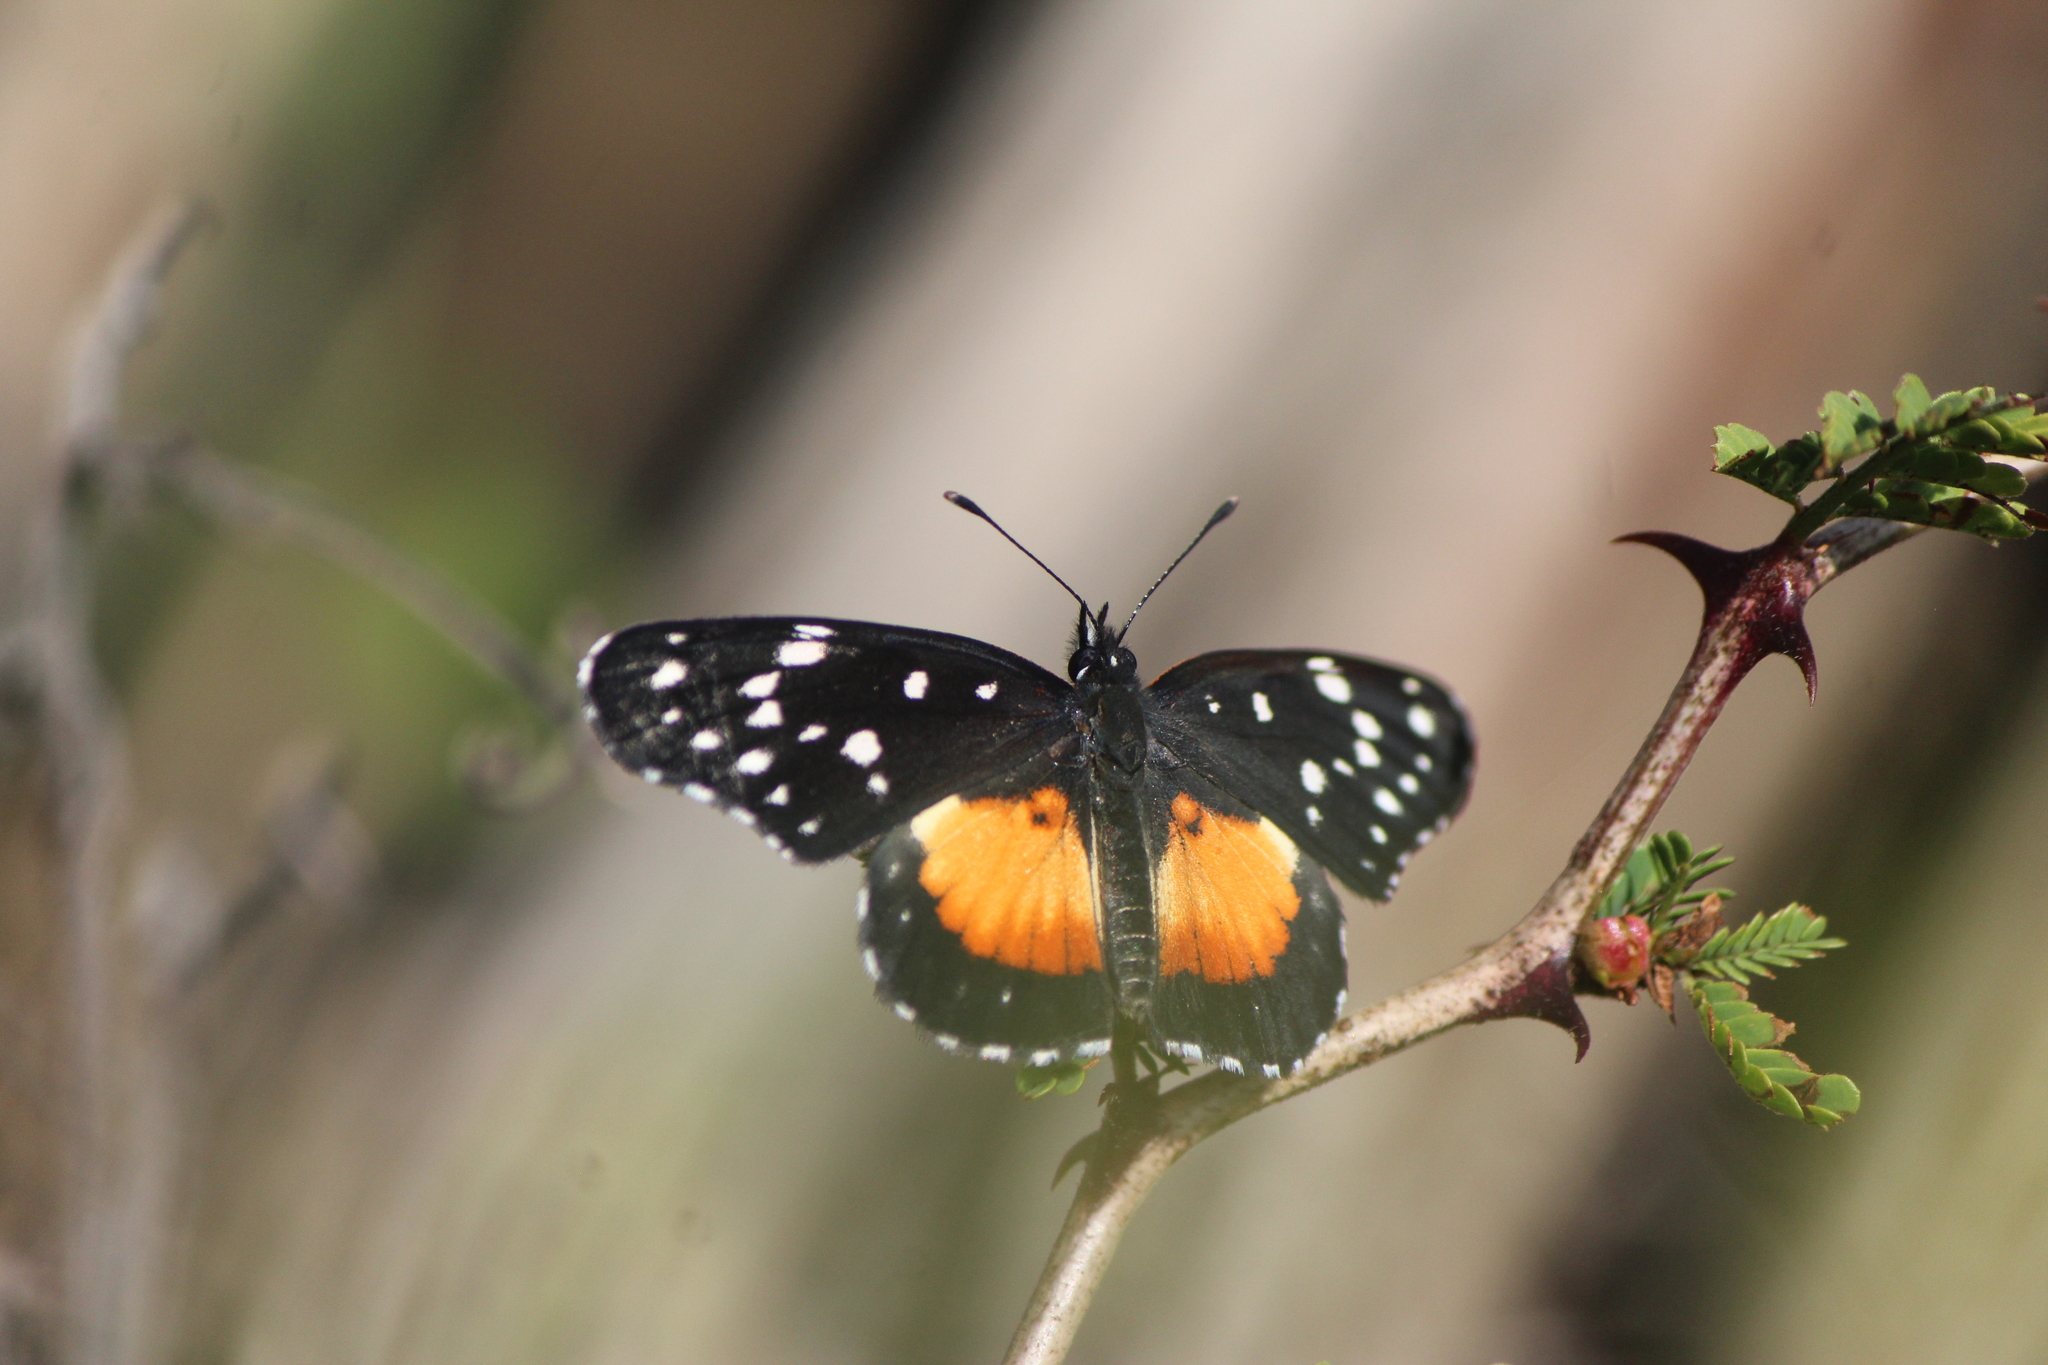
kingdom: Animalia
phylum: Arthropoda
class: Insecta
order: Lepidoptera
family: Nymphalidae
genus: Chlosyne
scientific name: Chlosyne rosita
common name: Rosita patch
